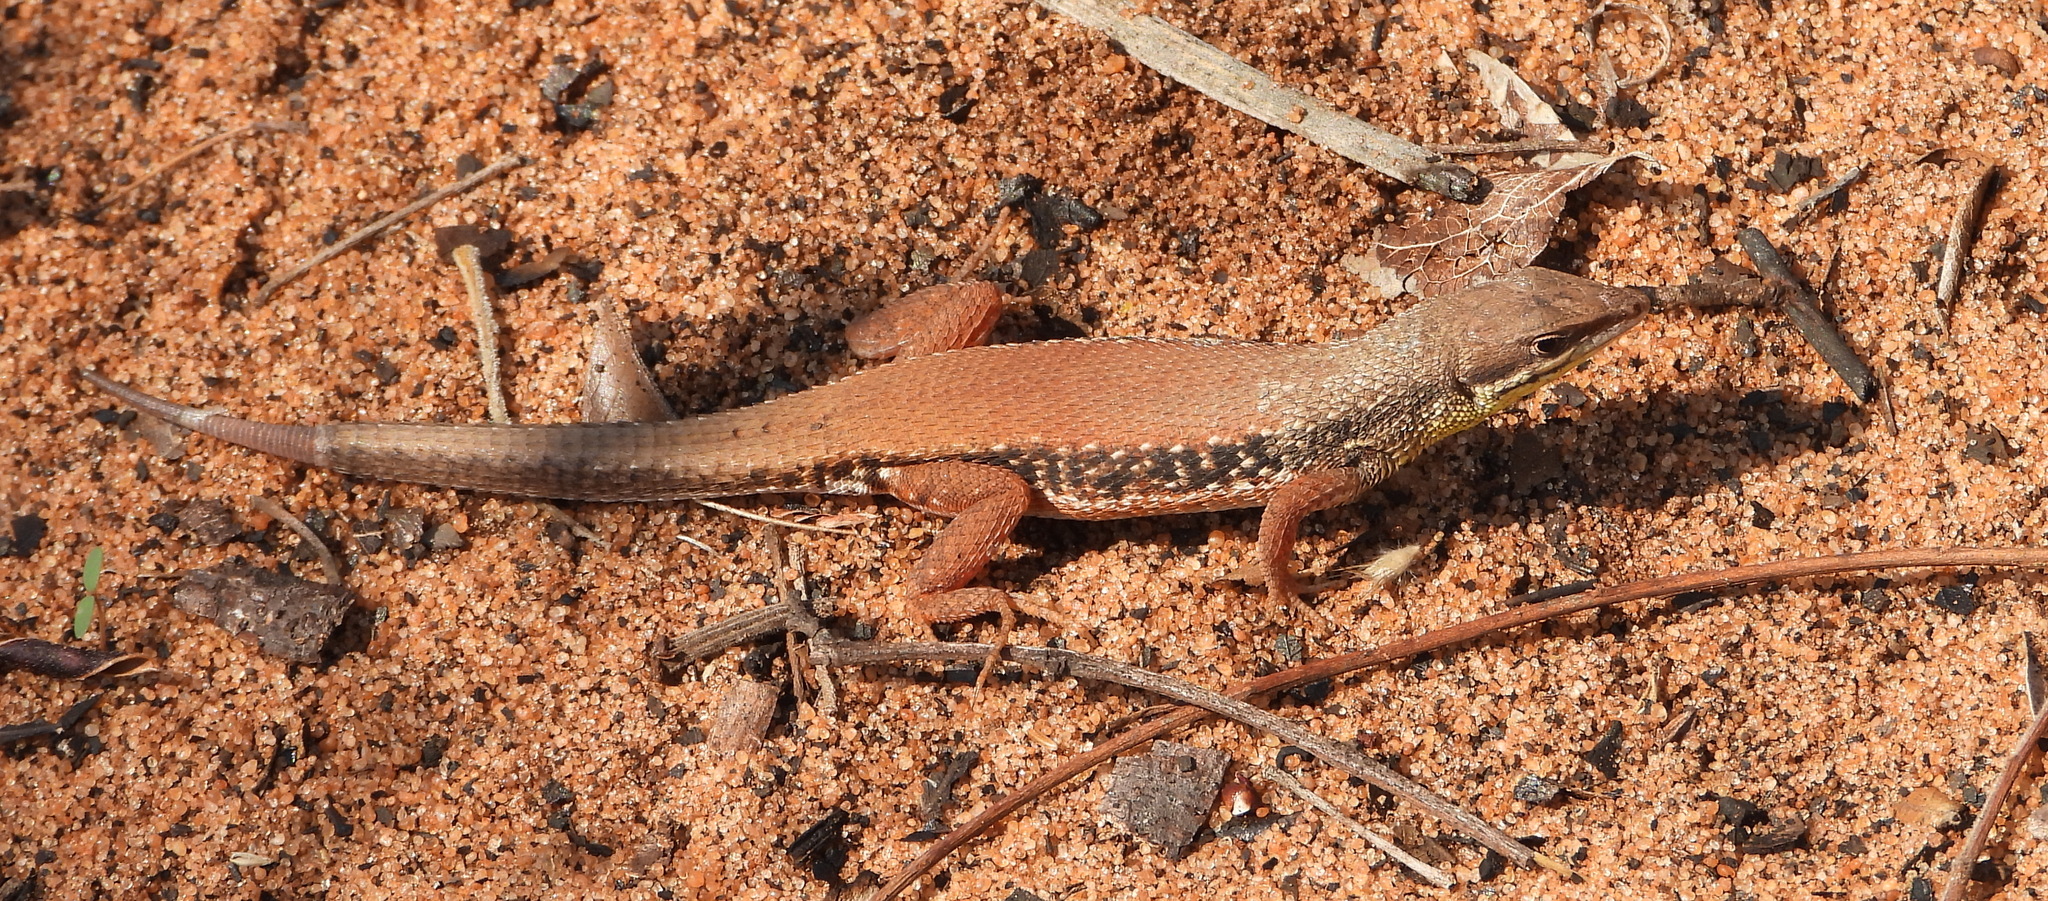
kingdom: Animalia
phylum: Chordata
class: Squamata
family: Lacertidae
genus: Ichnotropis
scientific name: Ichnotropis capensis
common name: Cape rough-scaled lizard
